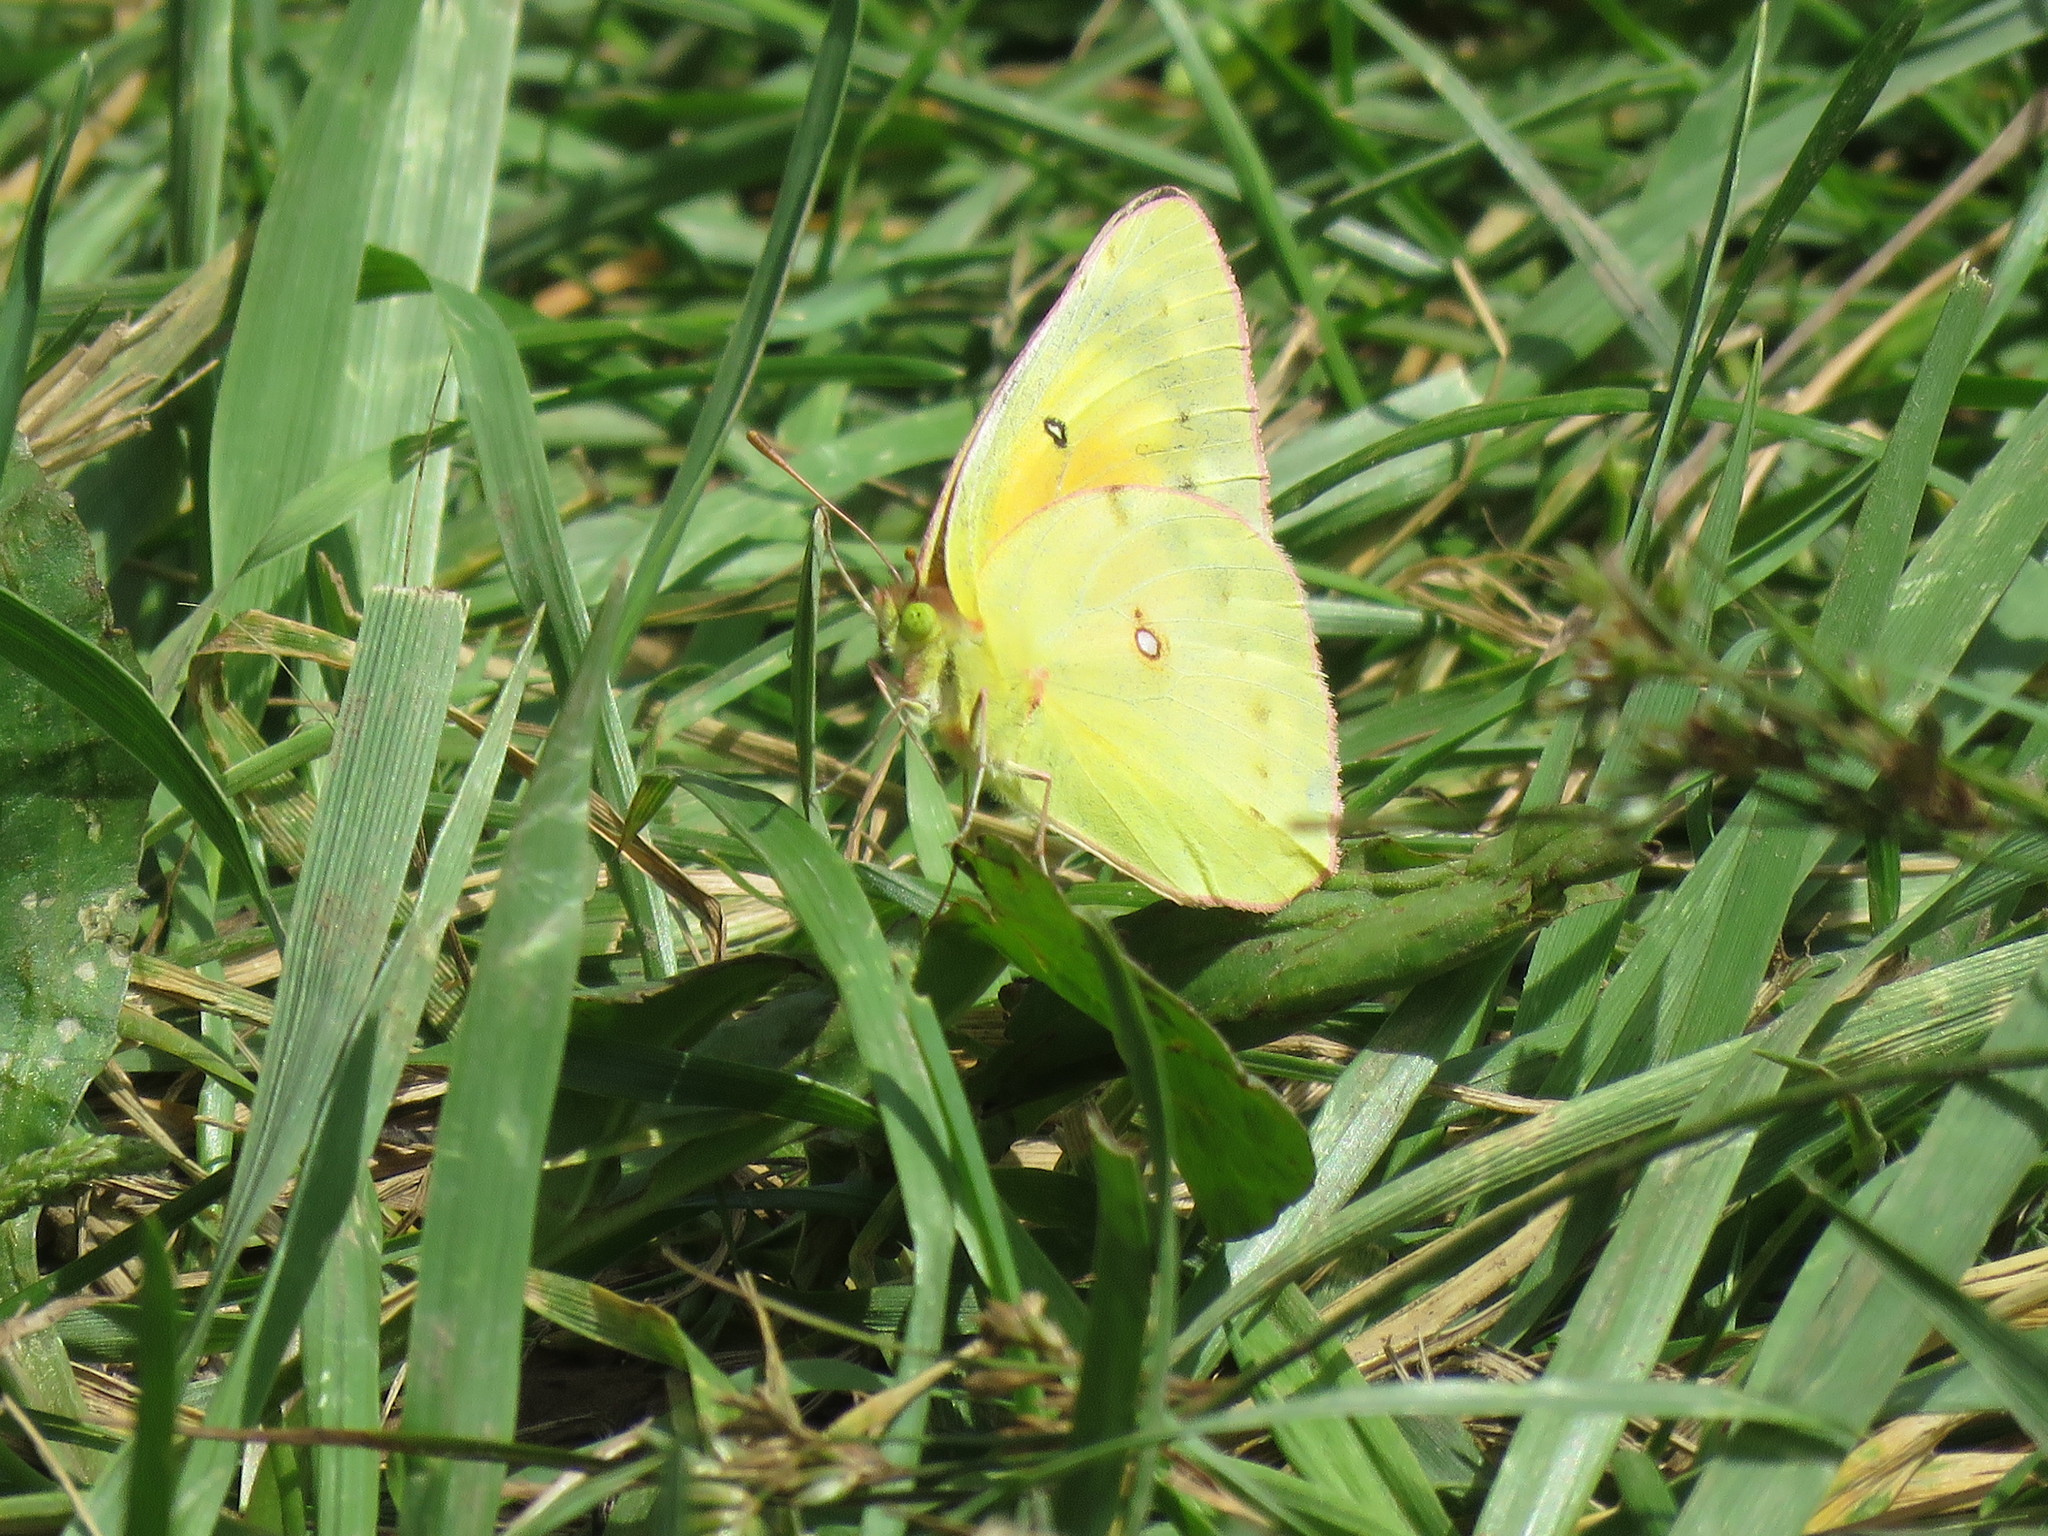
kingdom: Animalia
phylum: Arthropoda
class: Insecta
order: Lepidoptera
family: Pieridae
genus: Colias
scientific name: Colias eurytheme
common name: Alfalfa butterfly
